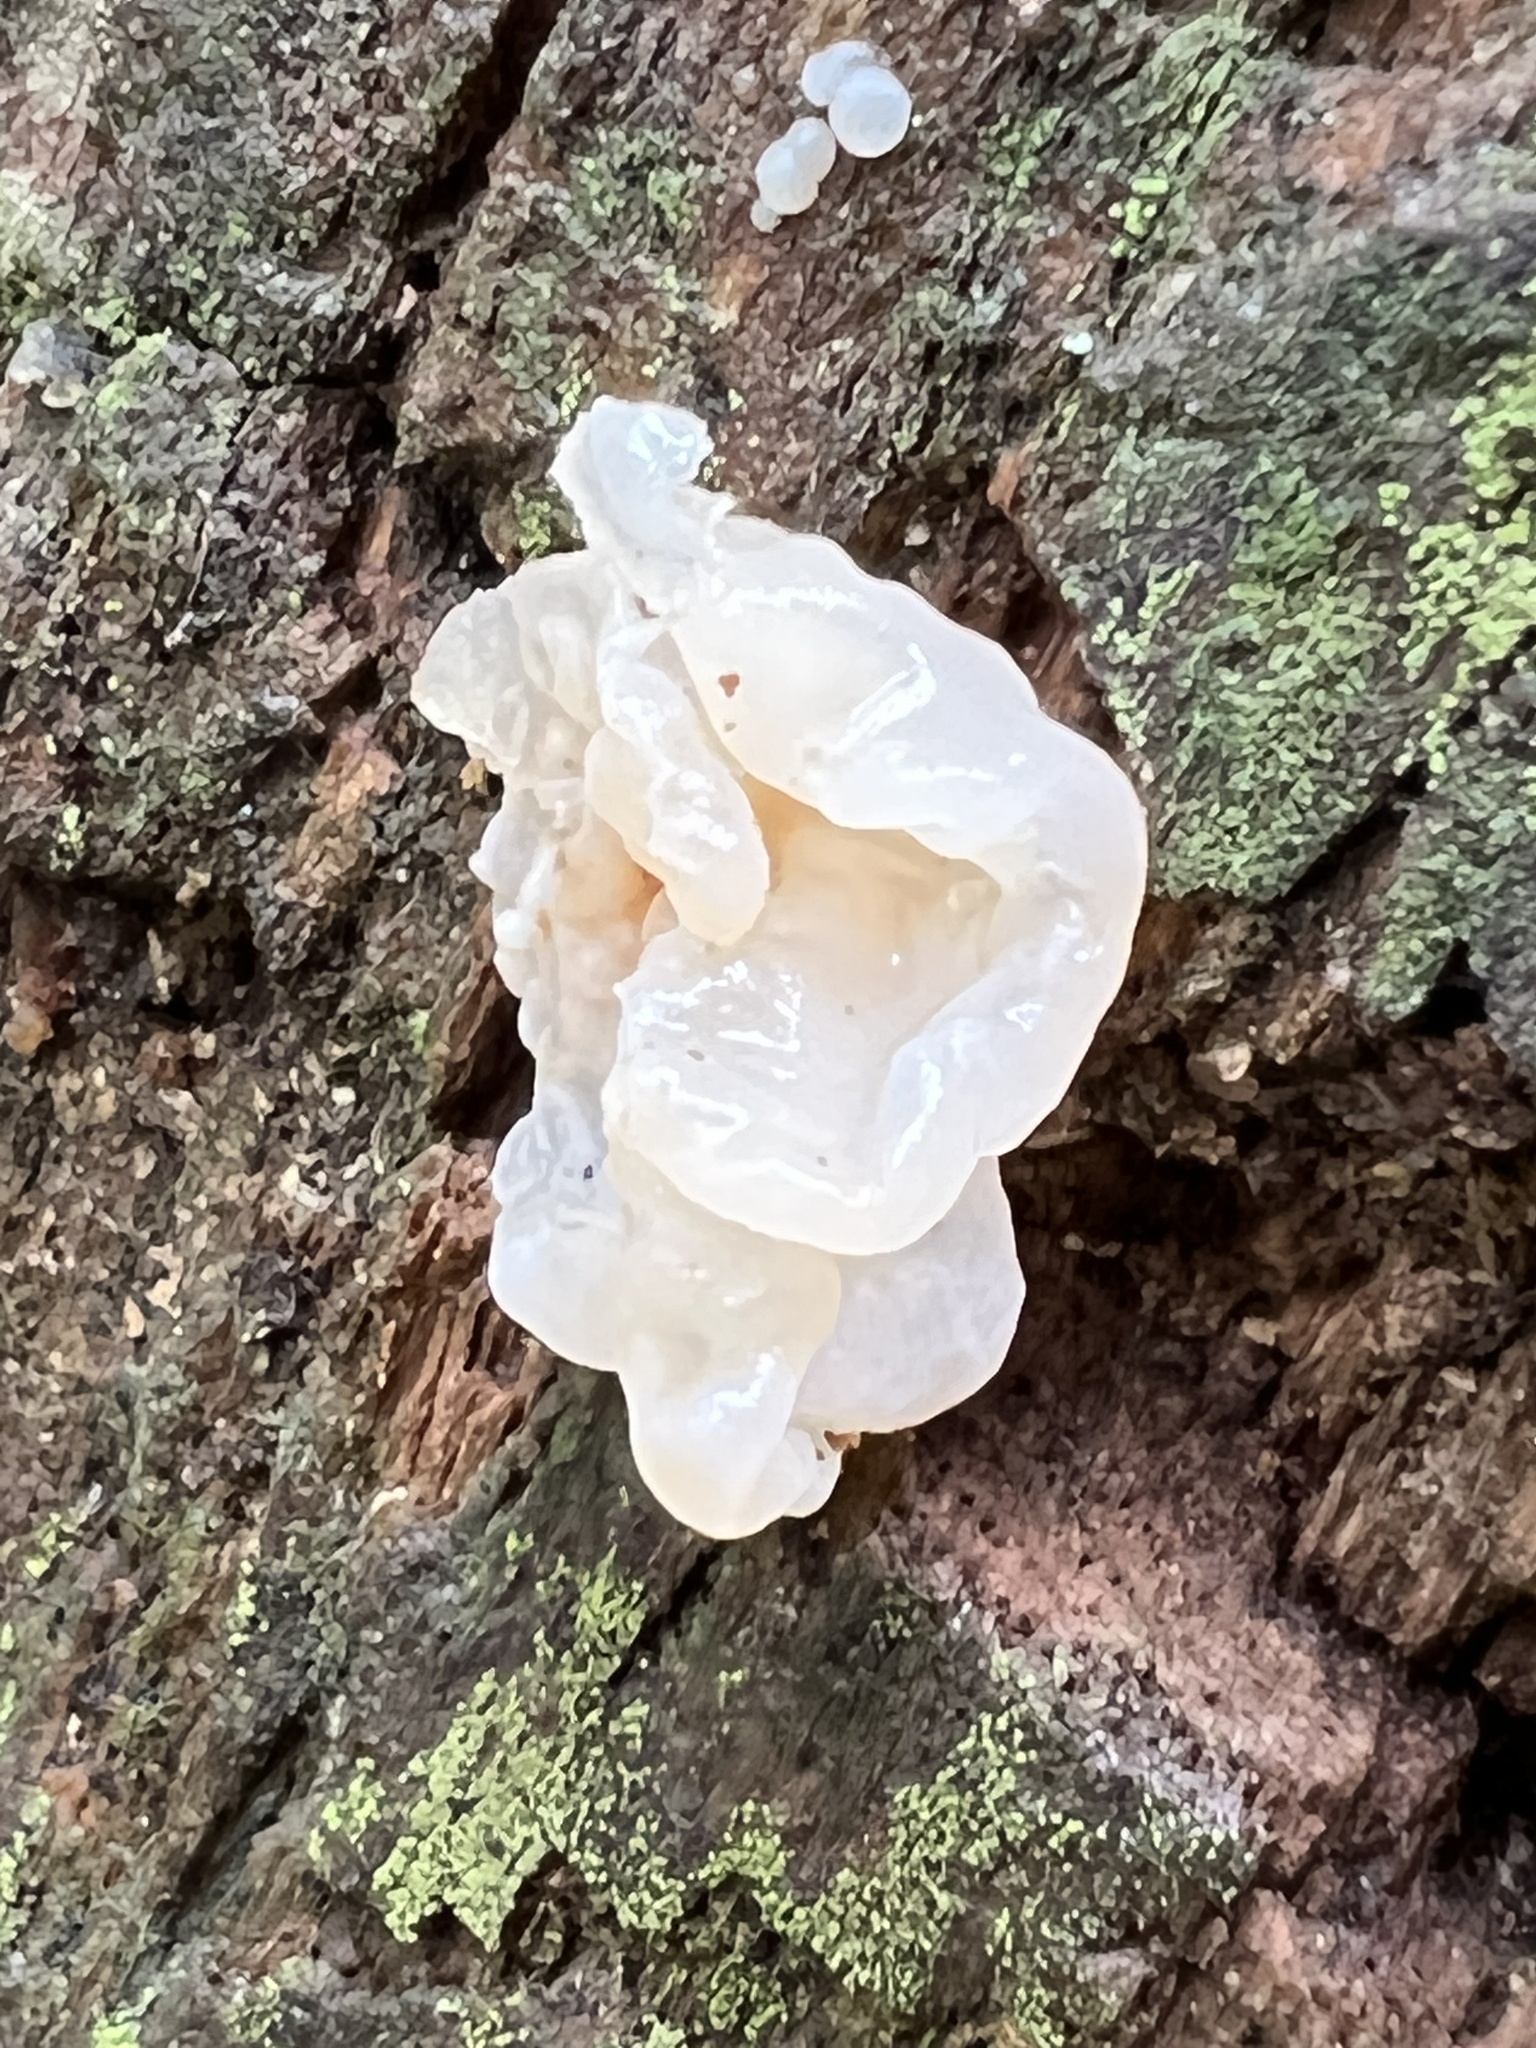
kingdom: Fungi
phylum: Basidiomycota
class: Agaricomycetes
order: Auriculariales
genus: Ductifera
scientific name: Ductifera pululahuana
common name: White jelly fungus
